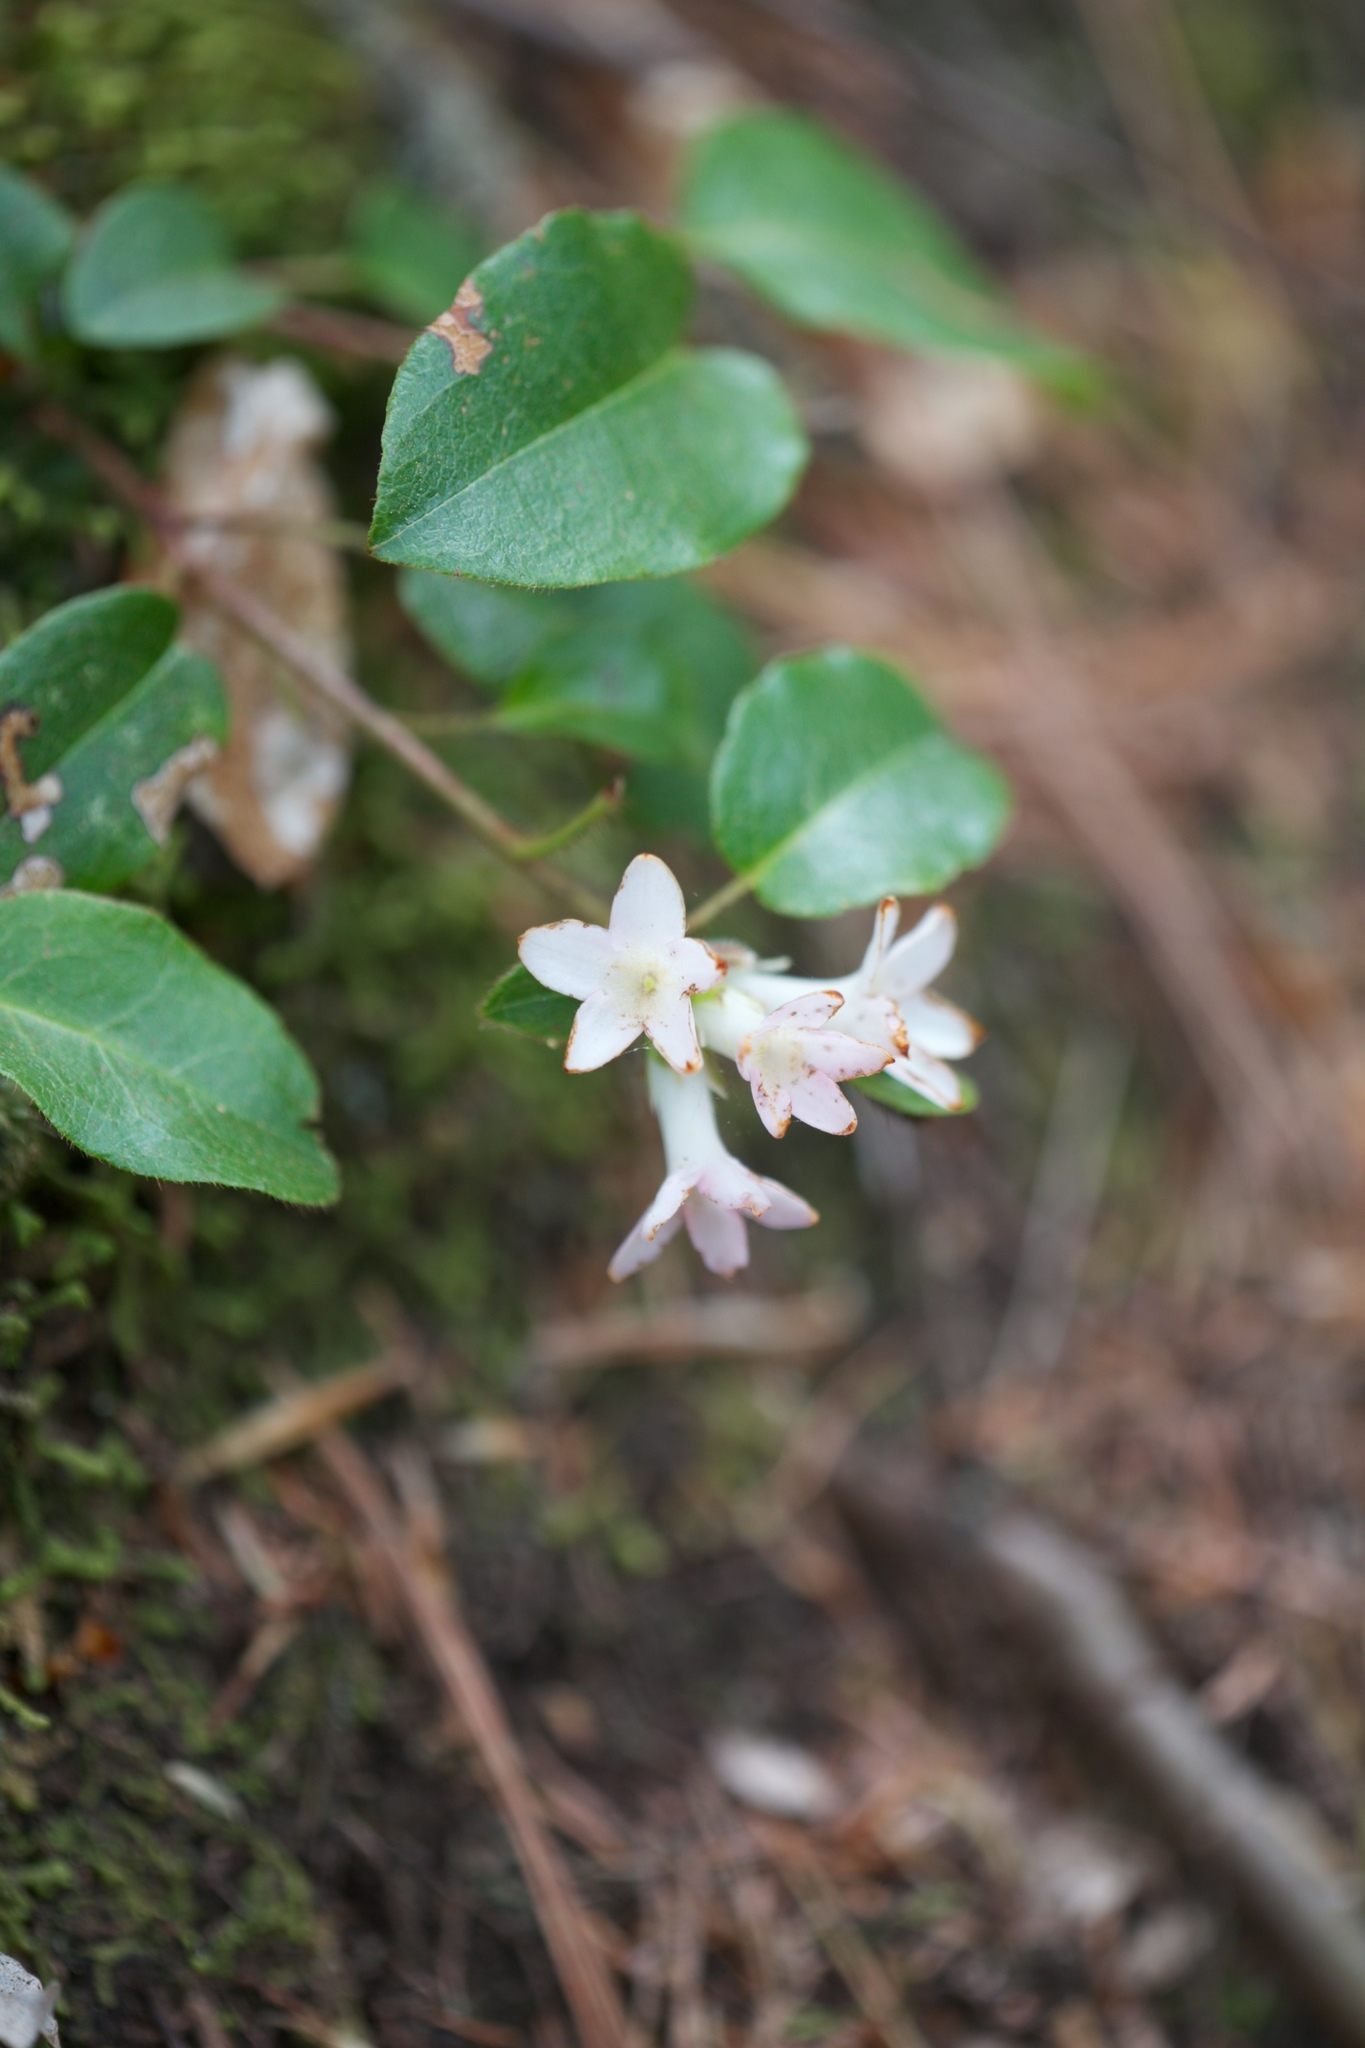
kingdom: Plantae
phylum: Tracheophyta
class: Magnoliopsida
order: Ericales
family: Ericaceae
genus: Epigaea
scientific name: Epigaea repens
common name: Gravelroot
